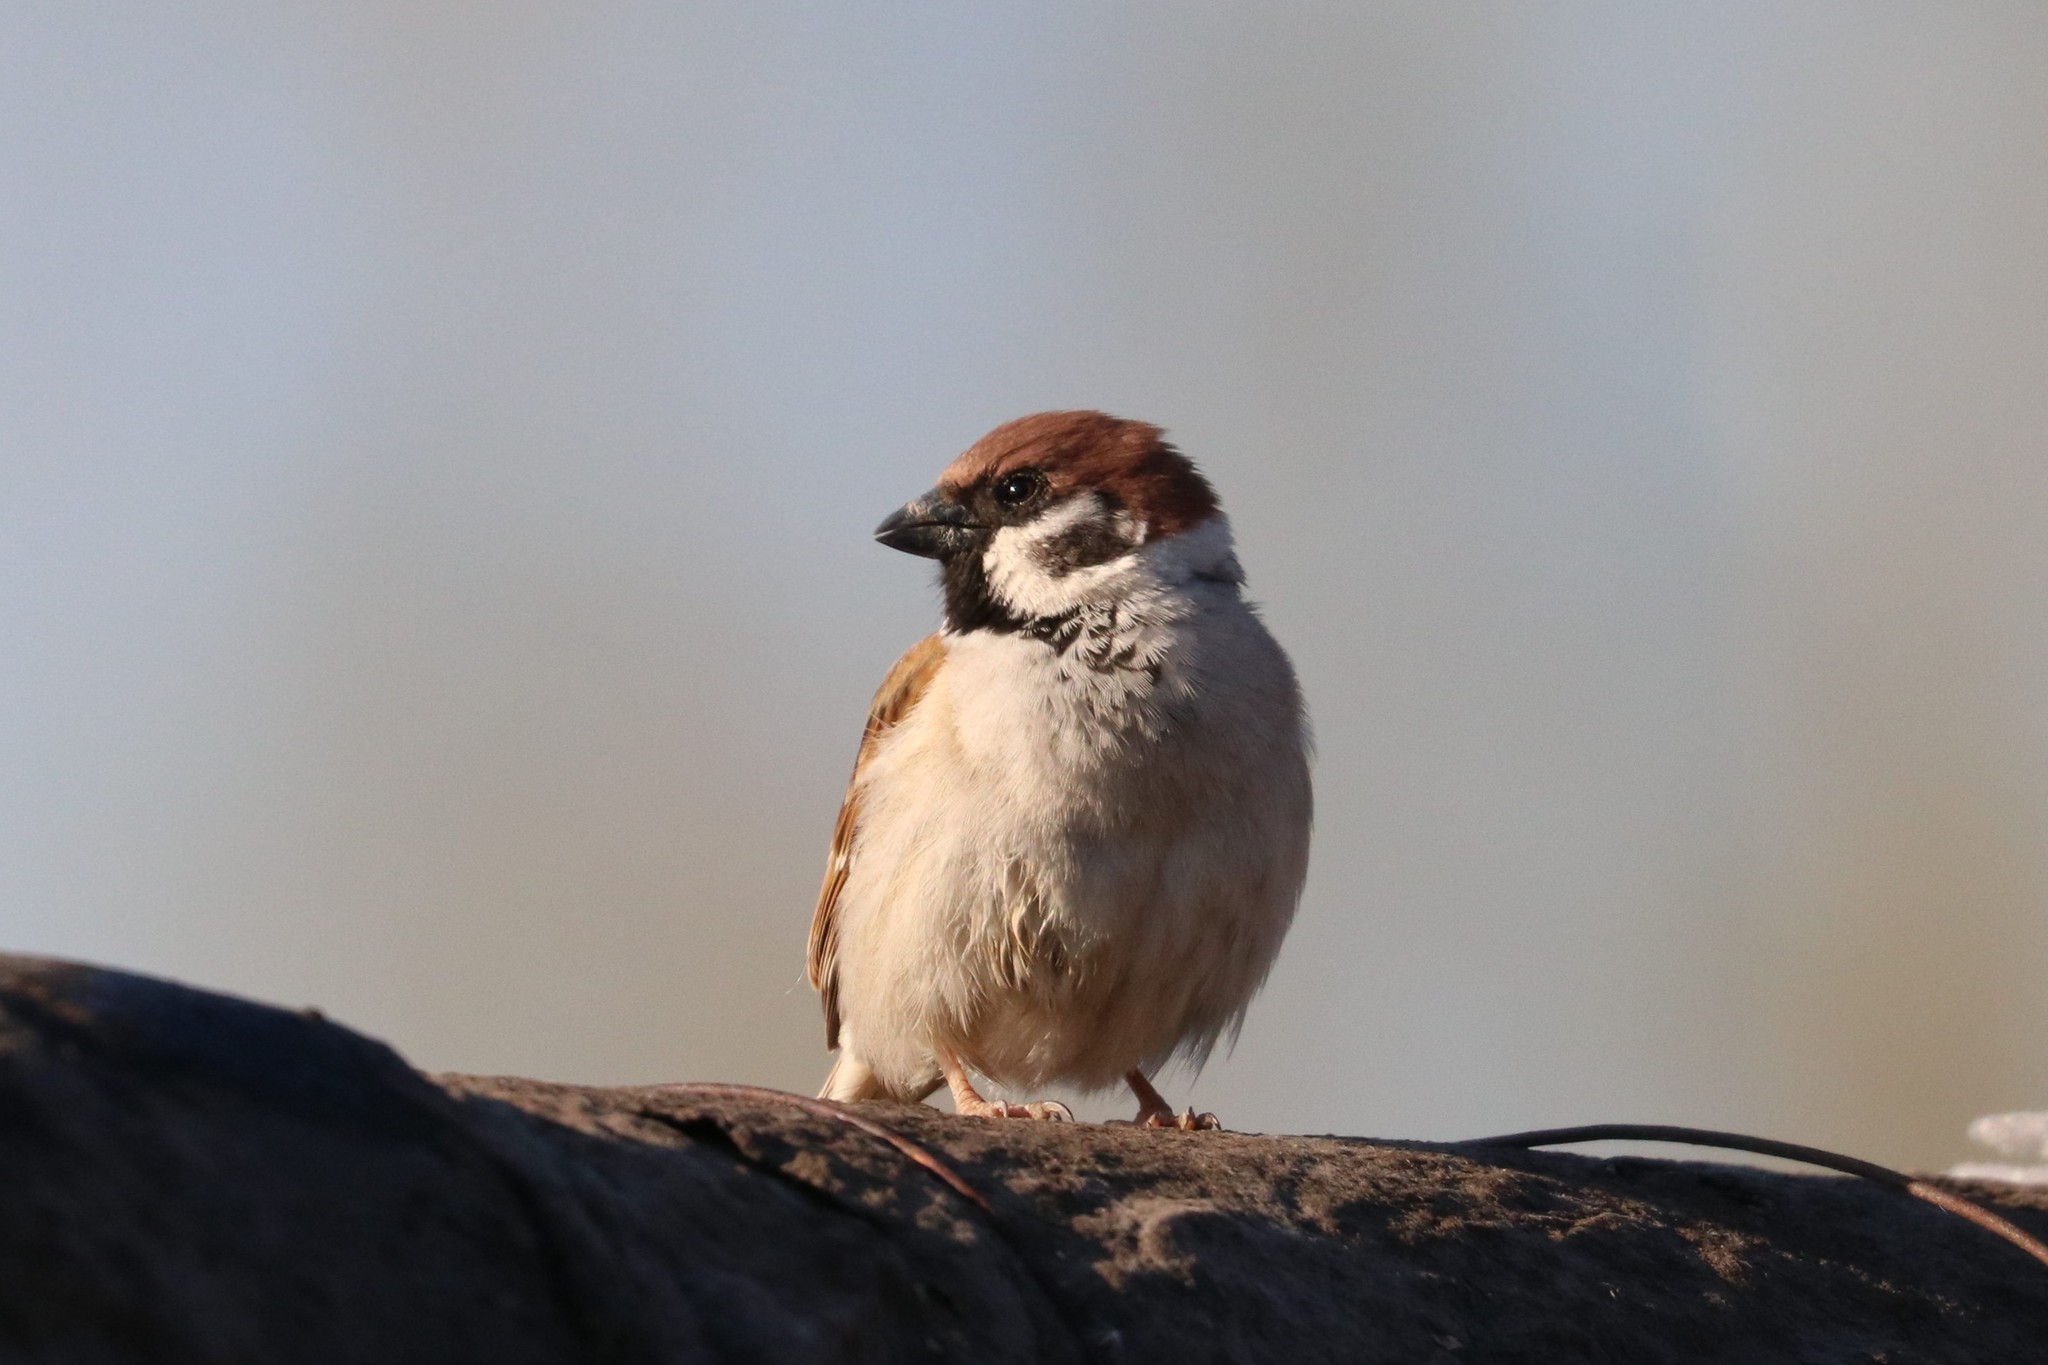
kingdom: Animalia
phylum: Chordata
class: Aves
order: Passeriformes
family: Passeridae
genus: Passer
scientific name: Passer montanus
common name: Eurasian tree sparrow
